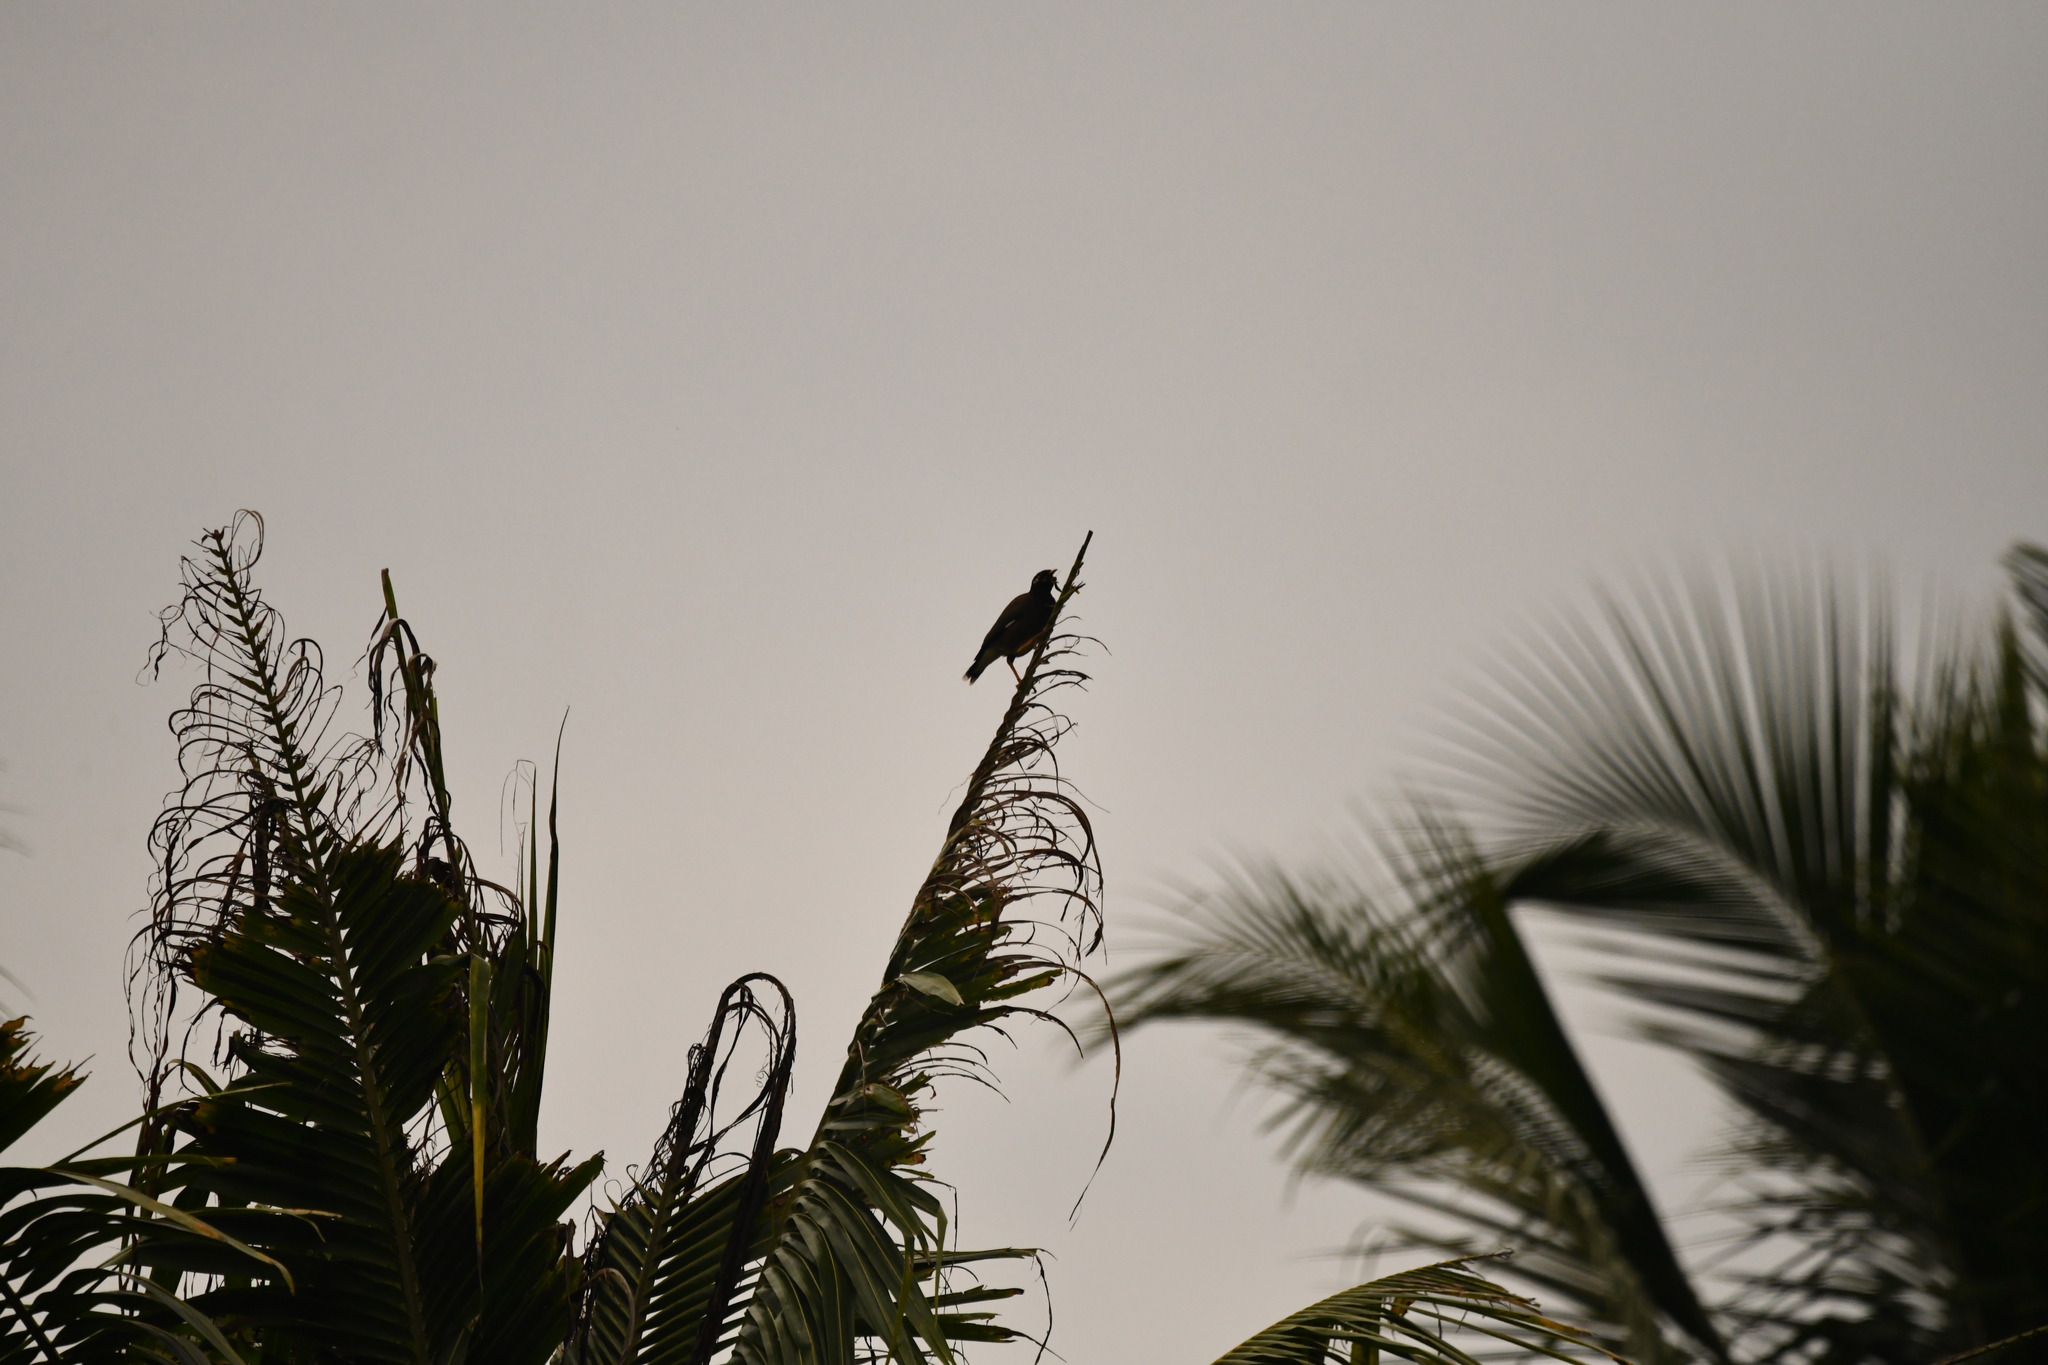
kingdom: Animalia
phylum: Chordata
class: Aves
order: Passeriformes
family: Sturnidae
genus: Acridotheres
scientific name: Acridotheres tristis
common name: Common myna
